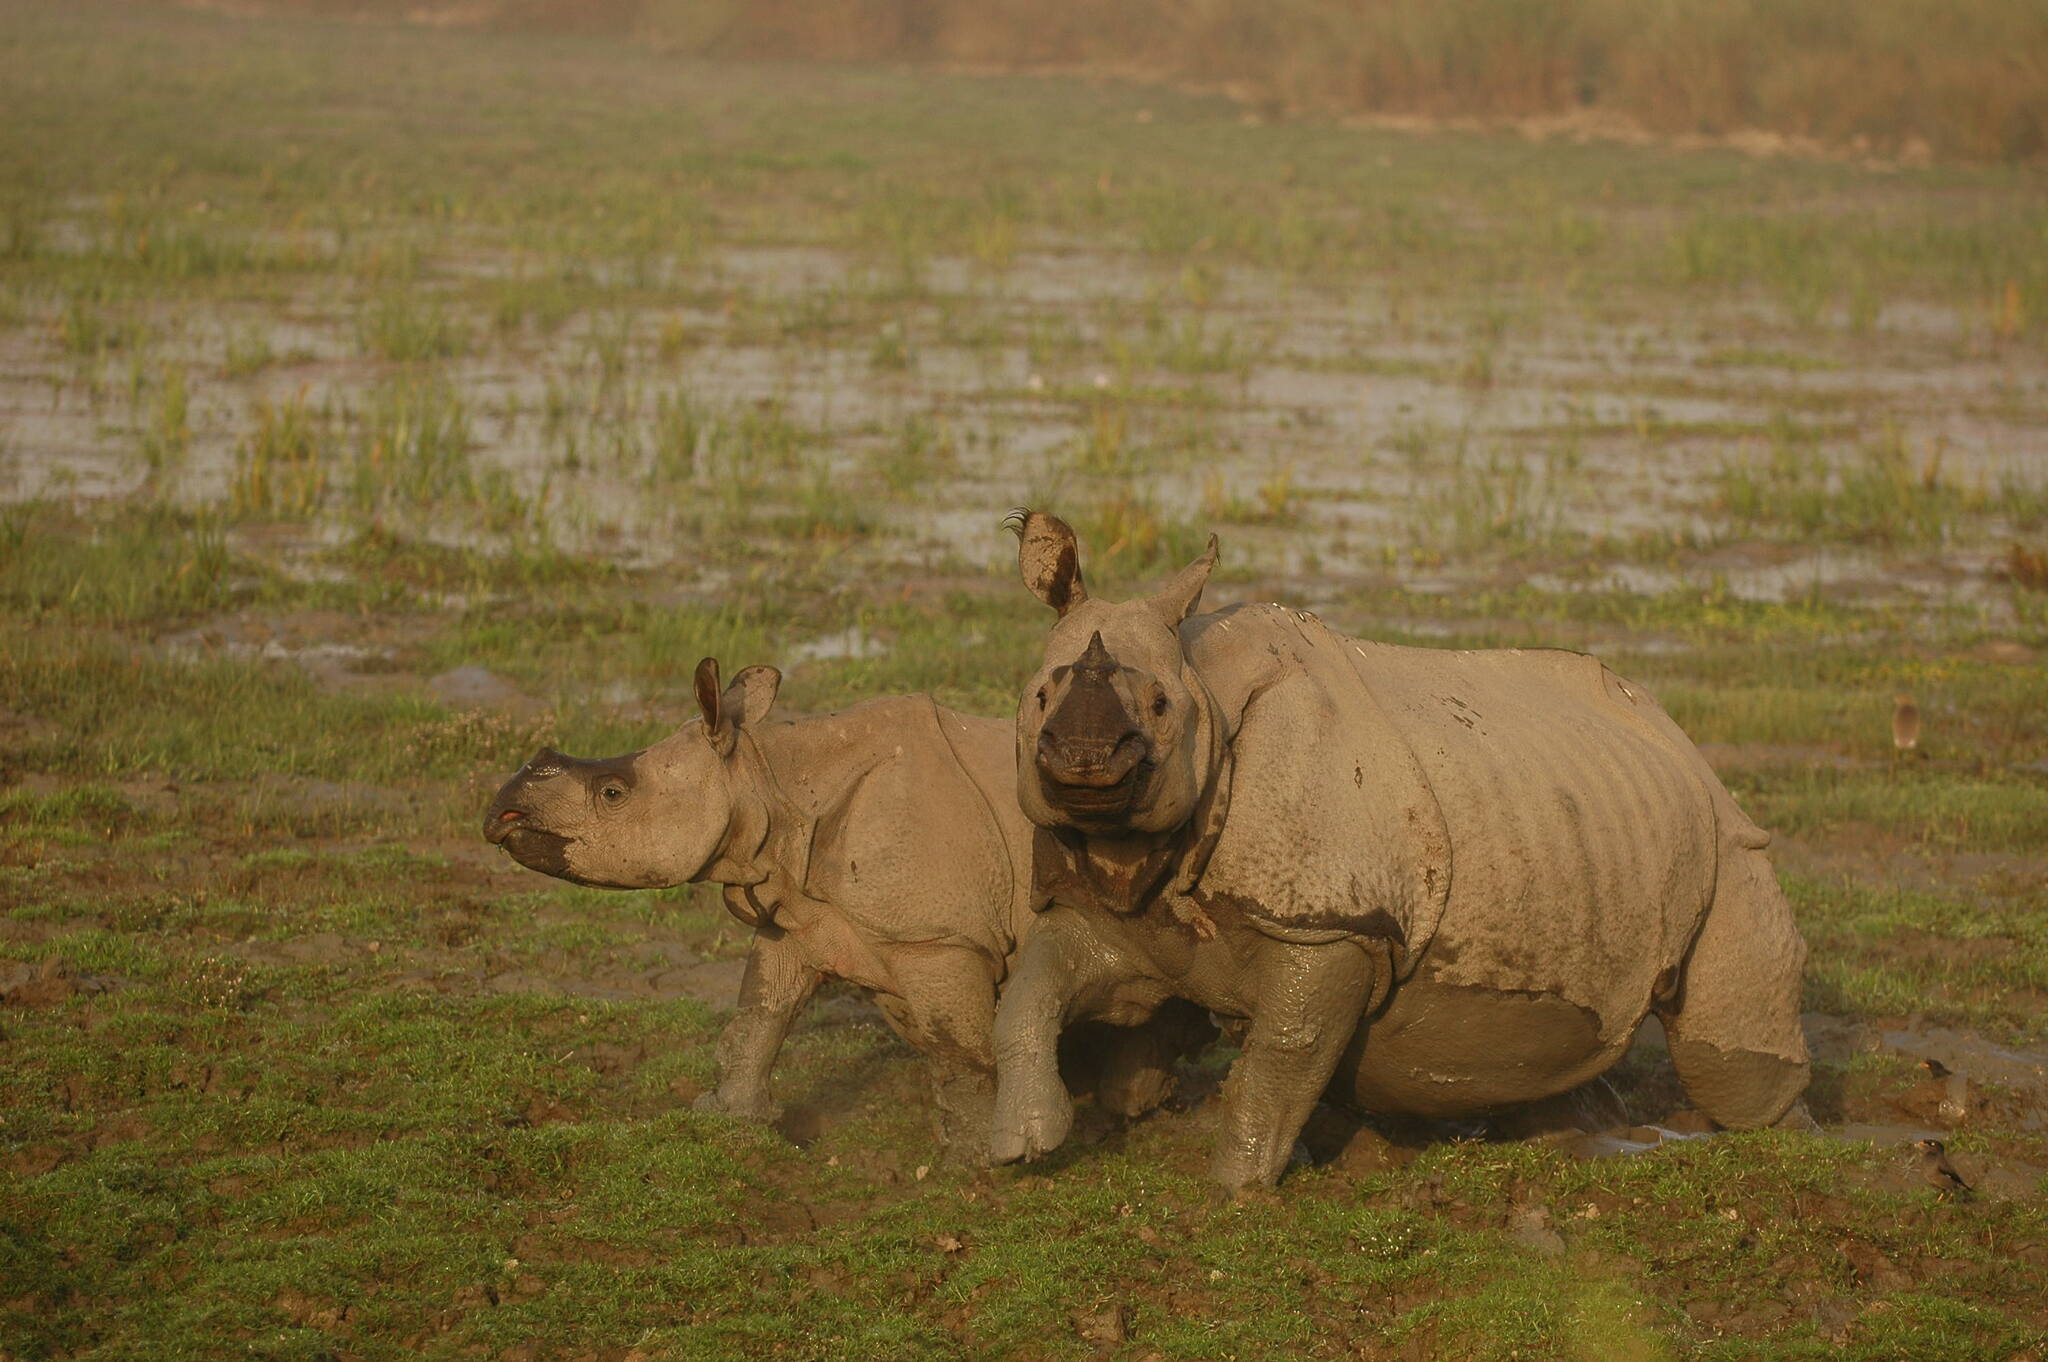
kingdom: Animalia
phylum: Chordata
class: Mammalia
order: Perissodactyla
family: Rhinocerotidae
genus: Rhinoceros
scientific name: Rhinoceros unicornis
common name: Indian rhinoceros
